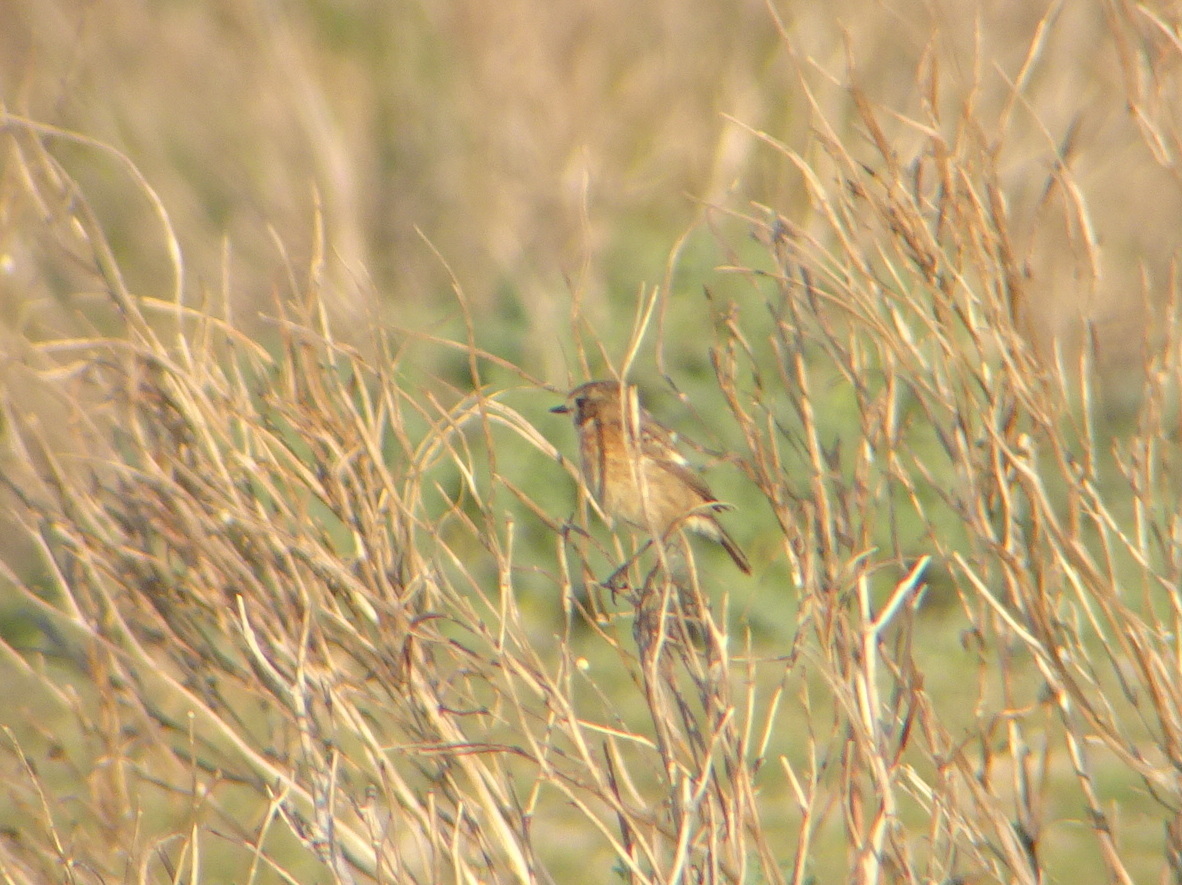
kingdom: Animalia
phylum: Chordata
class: Aves
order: Passeriformes
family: Muscicapidae
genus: Saxicola
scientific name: Saxicola rubicola
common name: European stonechat
